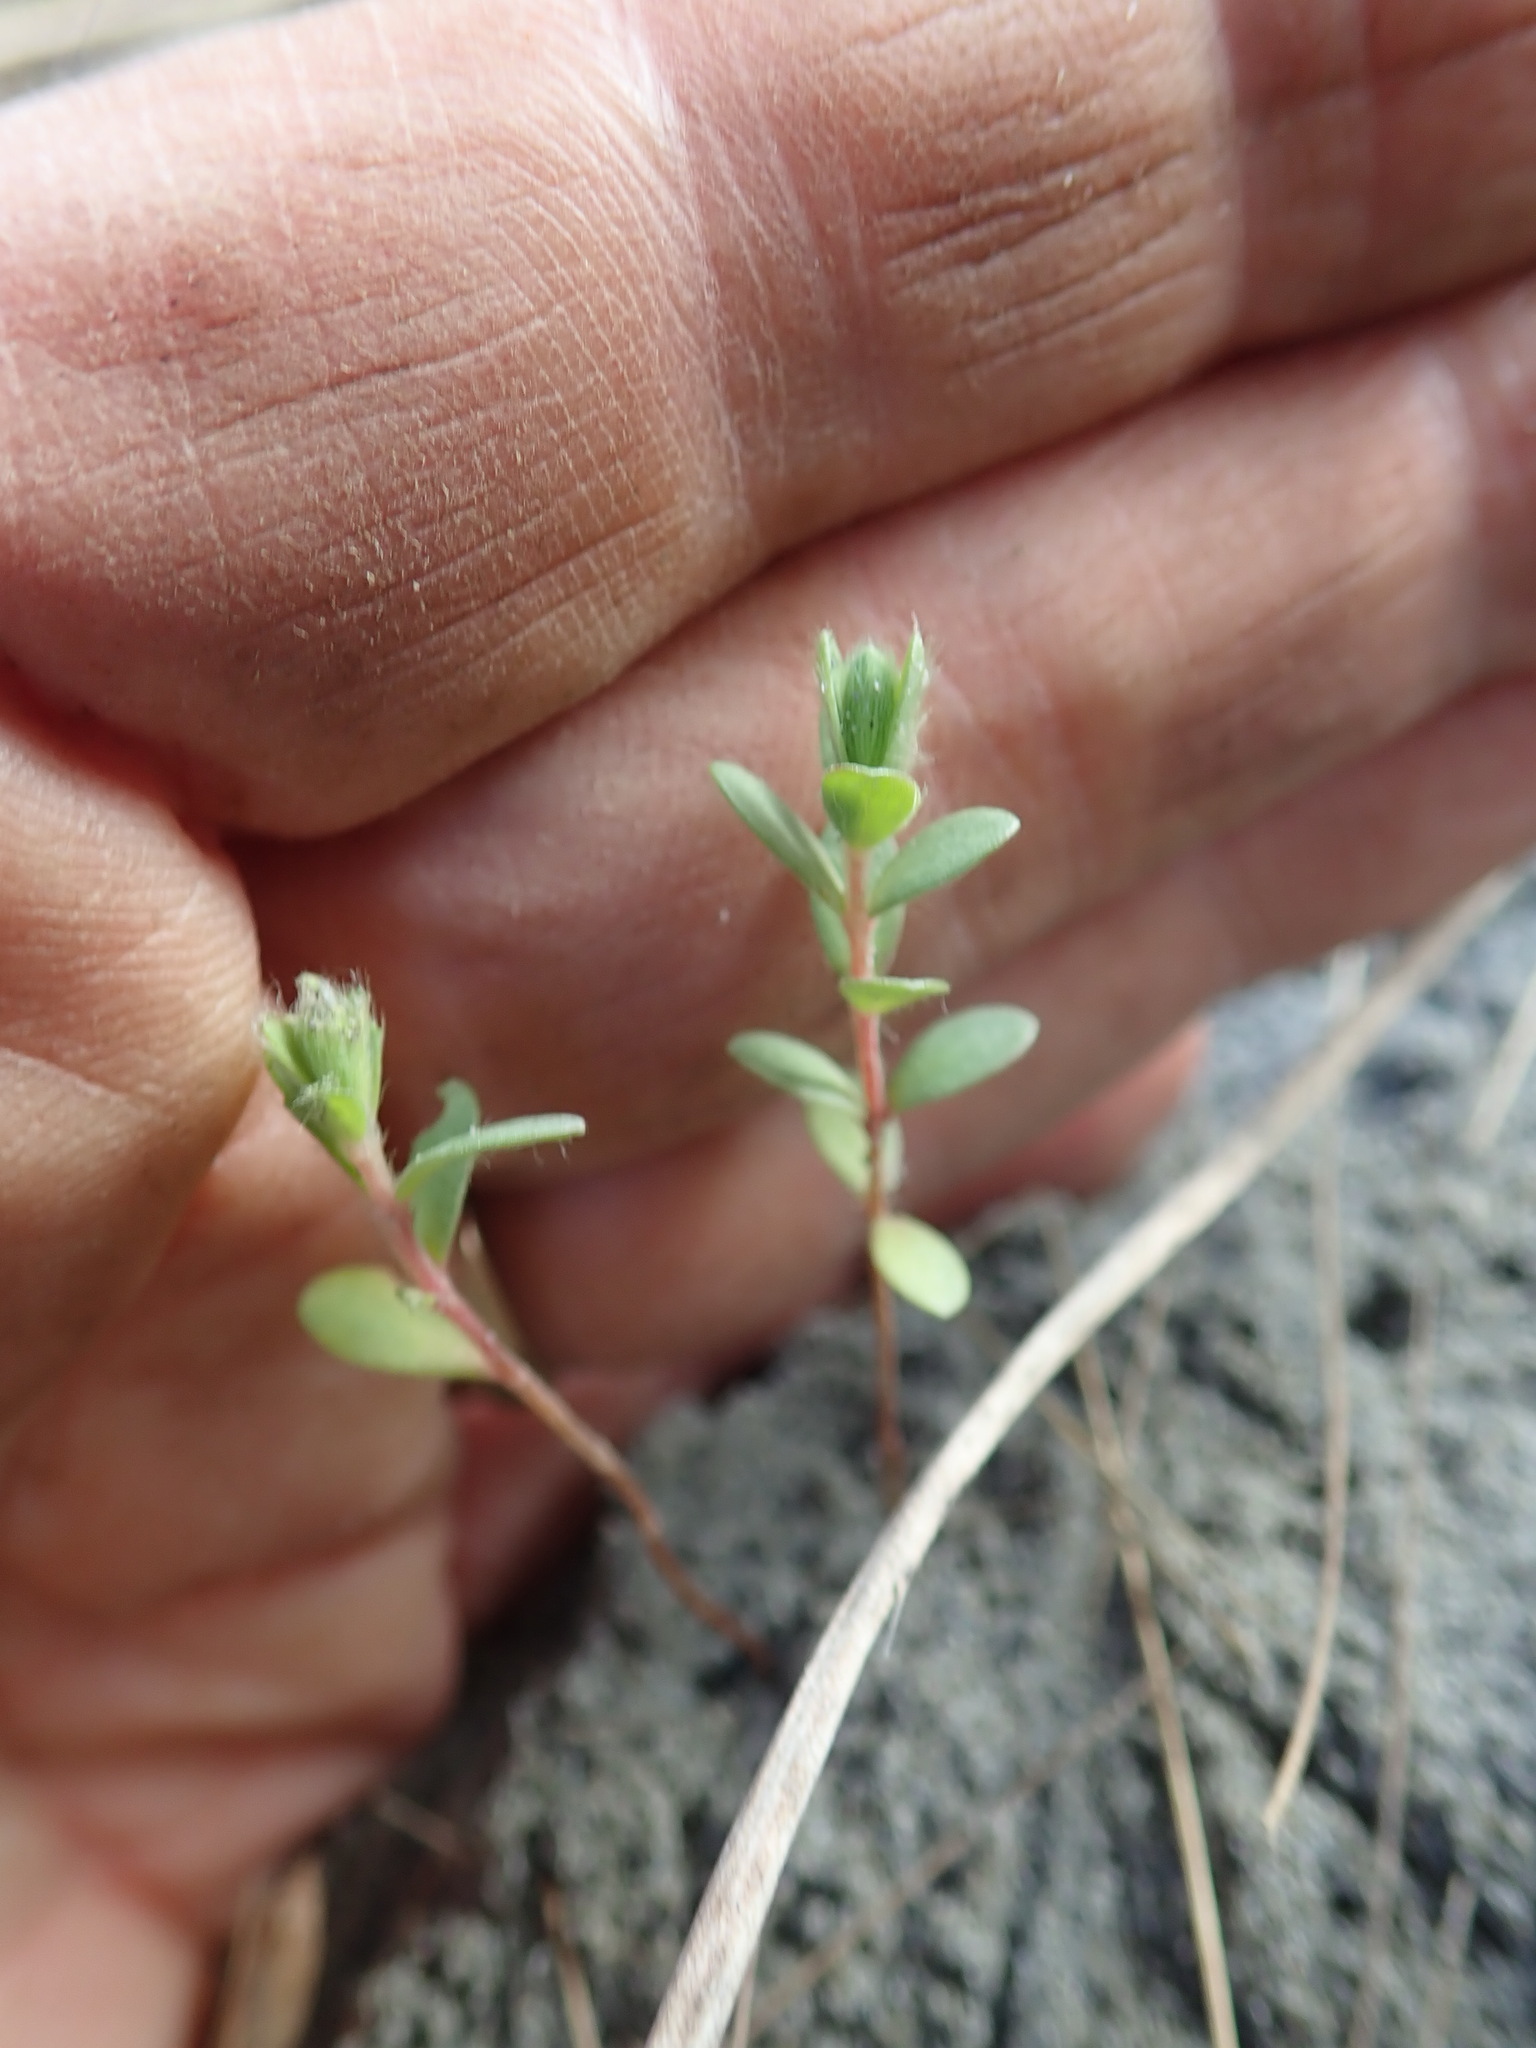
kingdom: Plantae
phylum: Tracheophyta
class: Magnoliopsida
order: Malvales
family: Thymelaeaceae
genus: Pimelea
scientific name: Pimelea villosa
